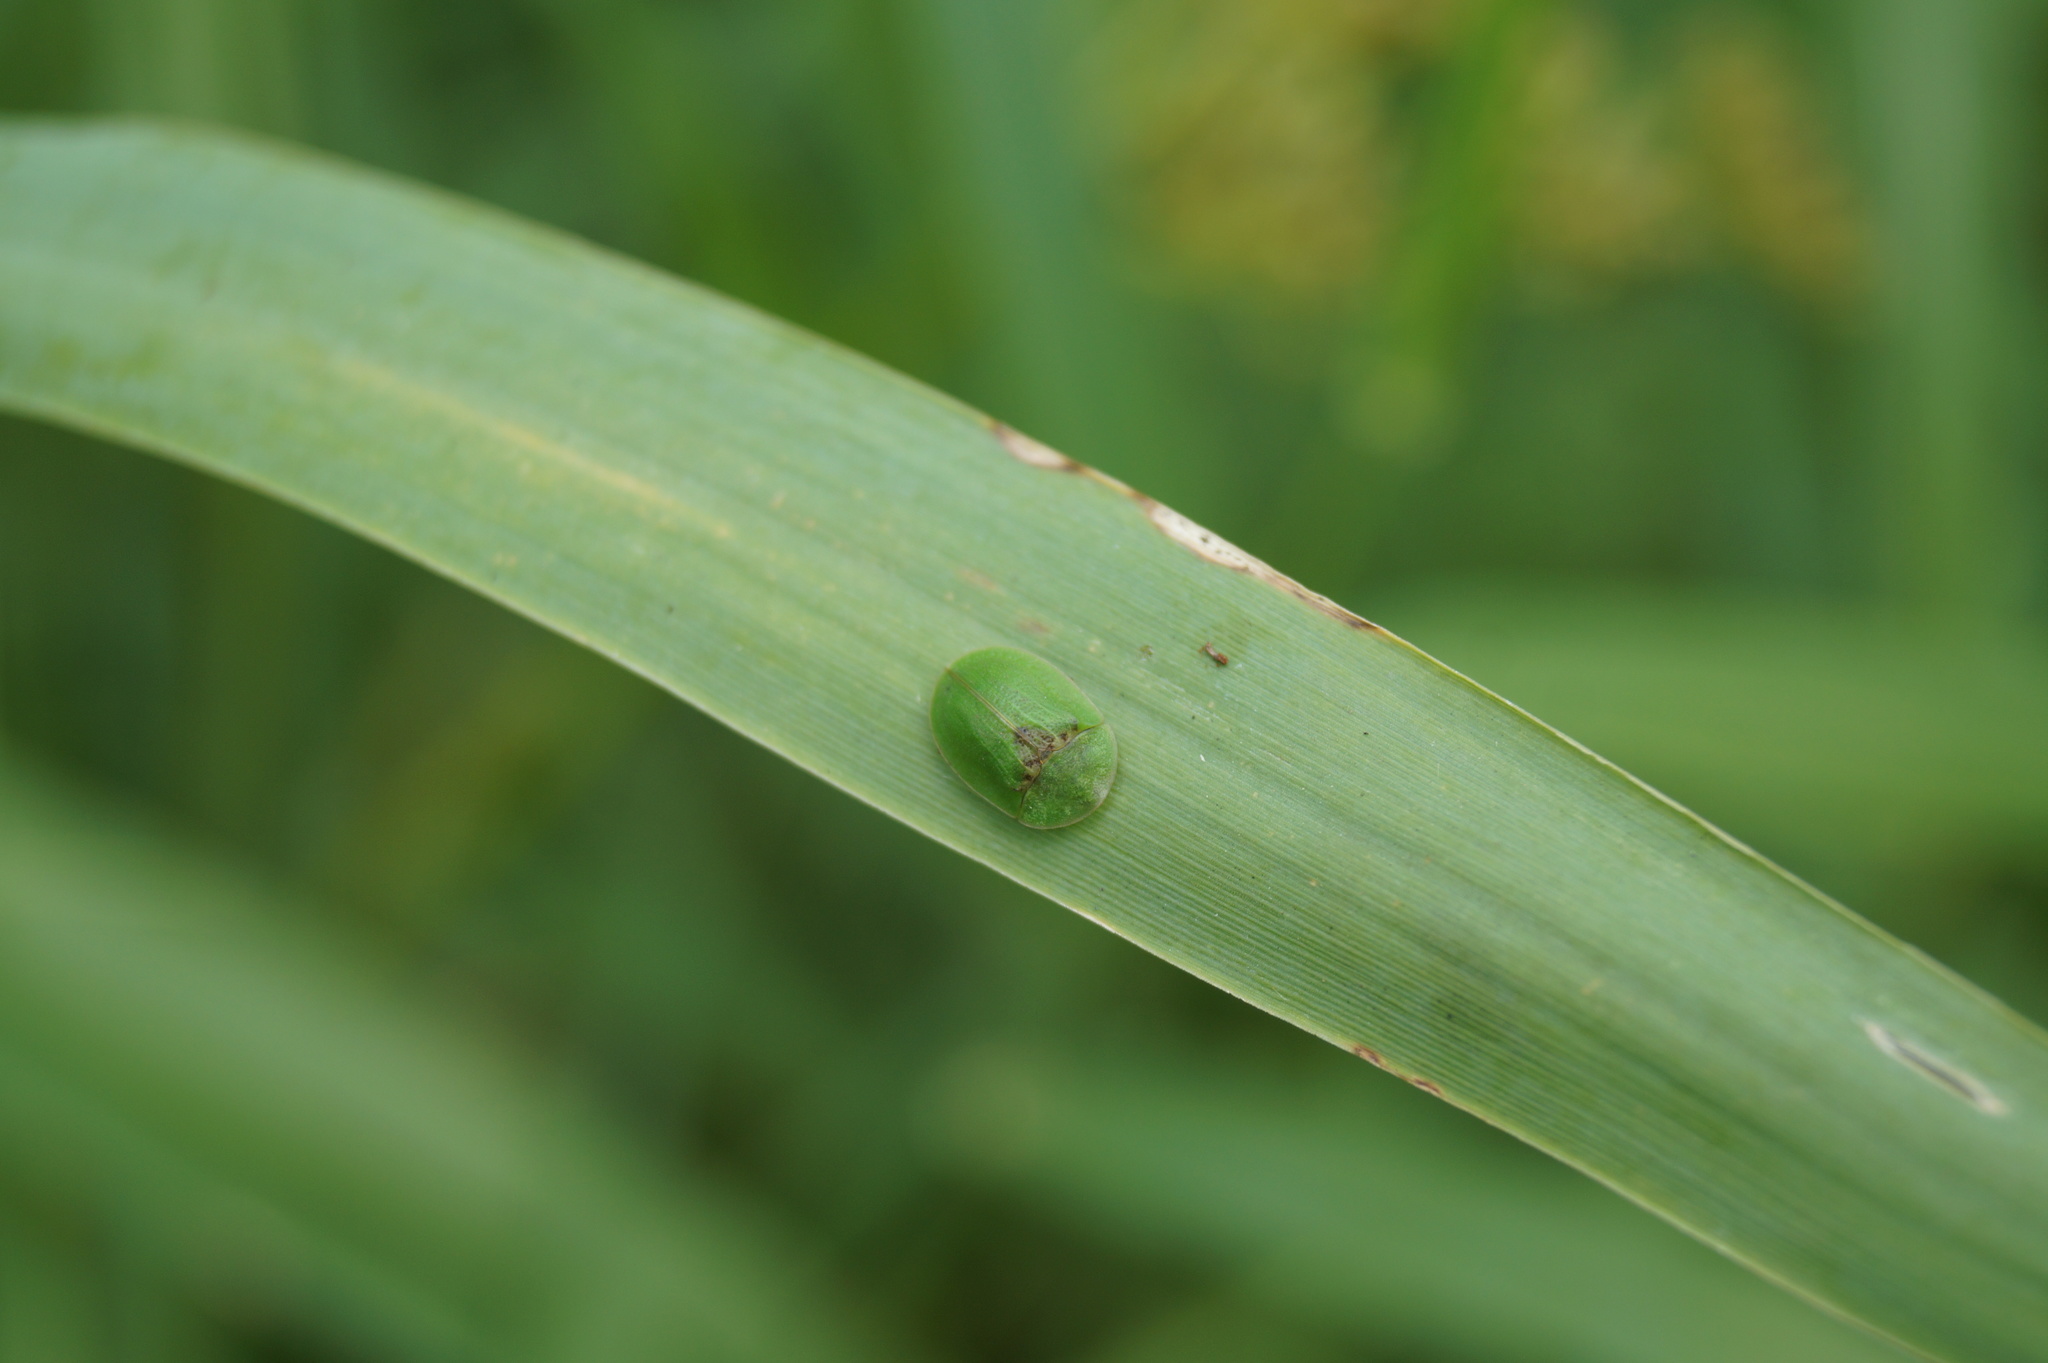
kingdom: Animalia
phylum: Arthropoda
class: Insecta
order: Coleoptera
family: Chrysomelidae
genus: Cassida
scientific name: Cassida rubiginosa
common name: Thistle tortoise beetle
